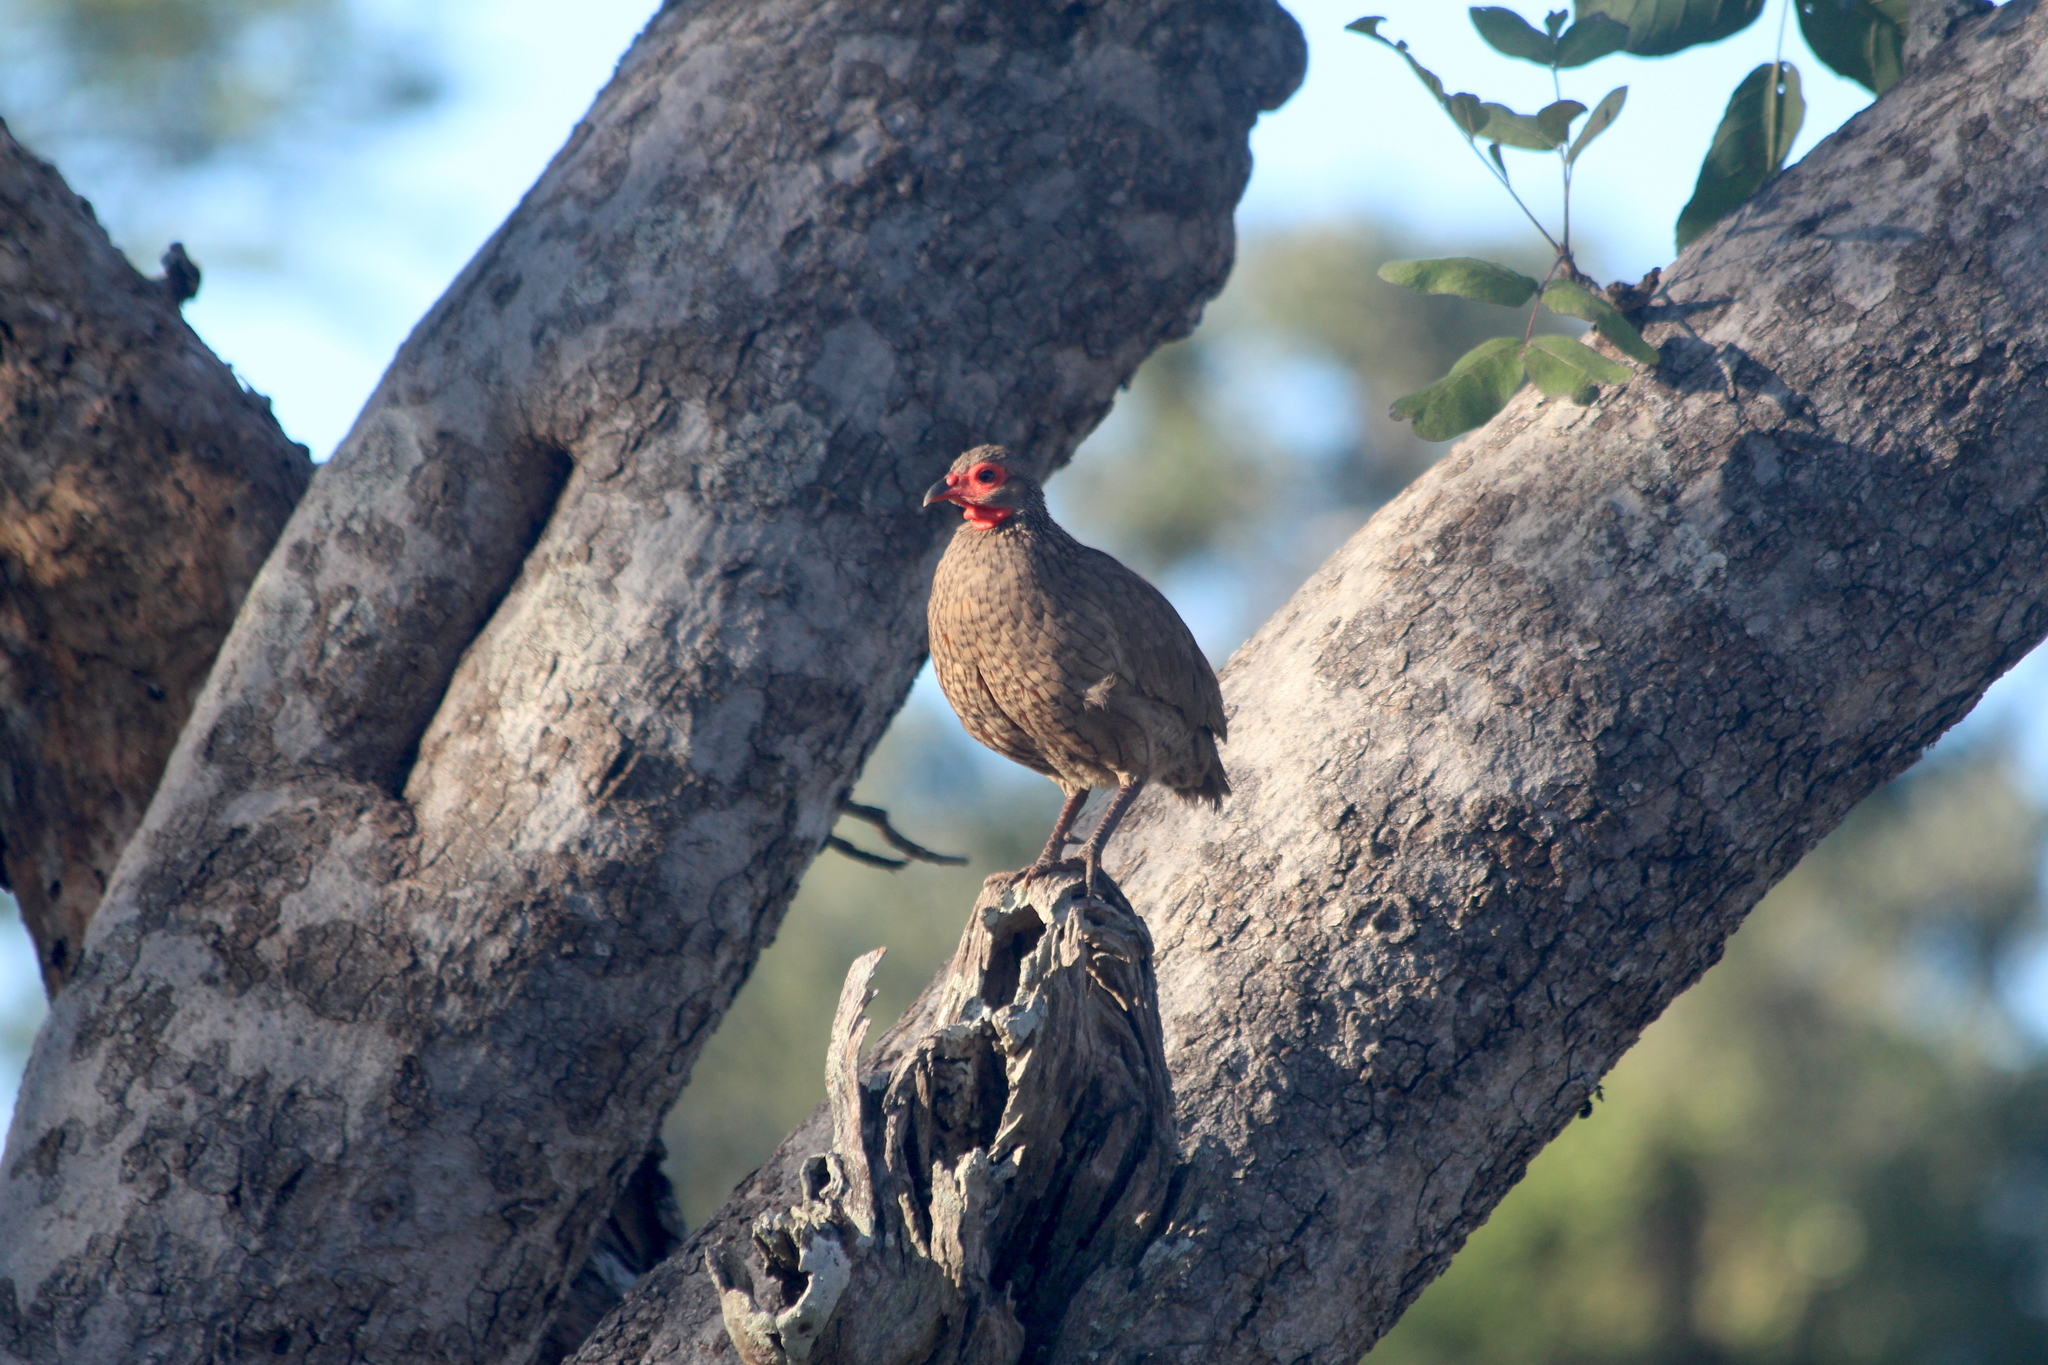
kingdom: Animalia
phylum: Chordata
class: Aves
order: Galliformes
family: Phasianidae
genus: Pternistis
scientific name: Pternistis swainsonii
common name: Swainson's spurfowl
